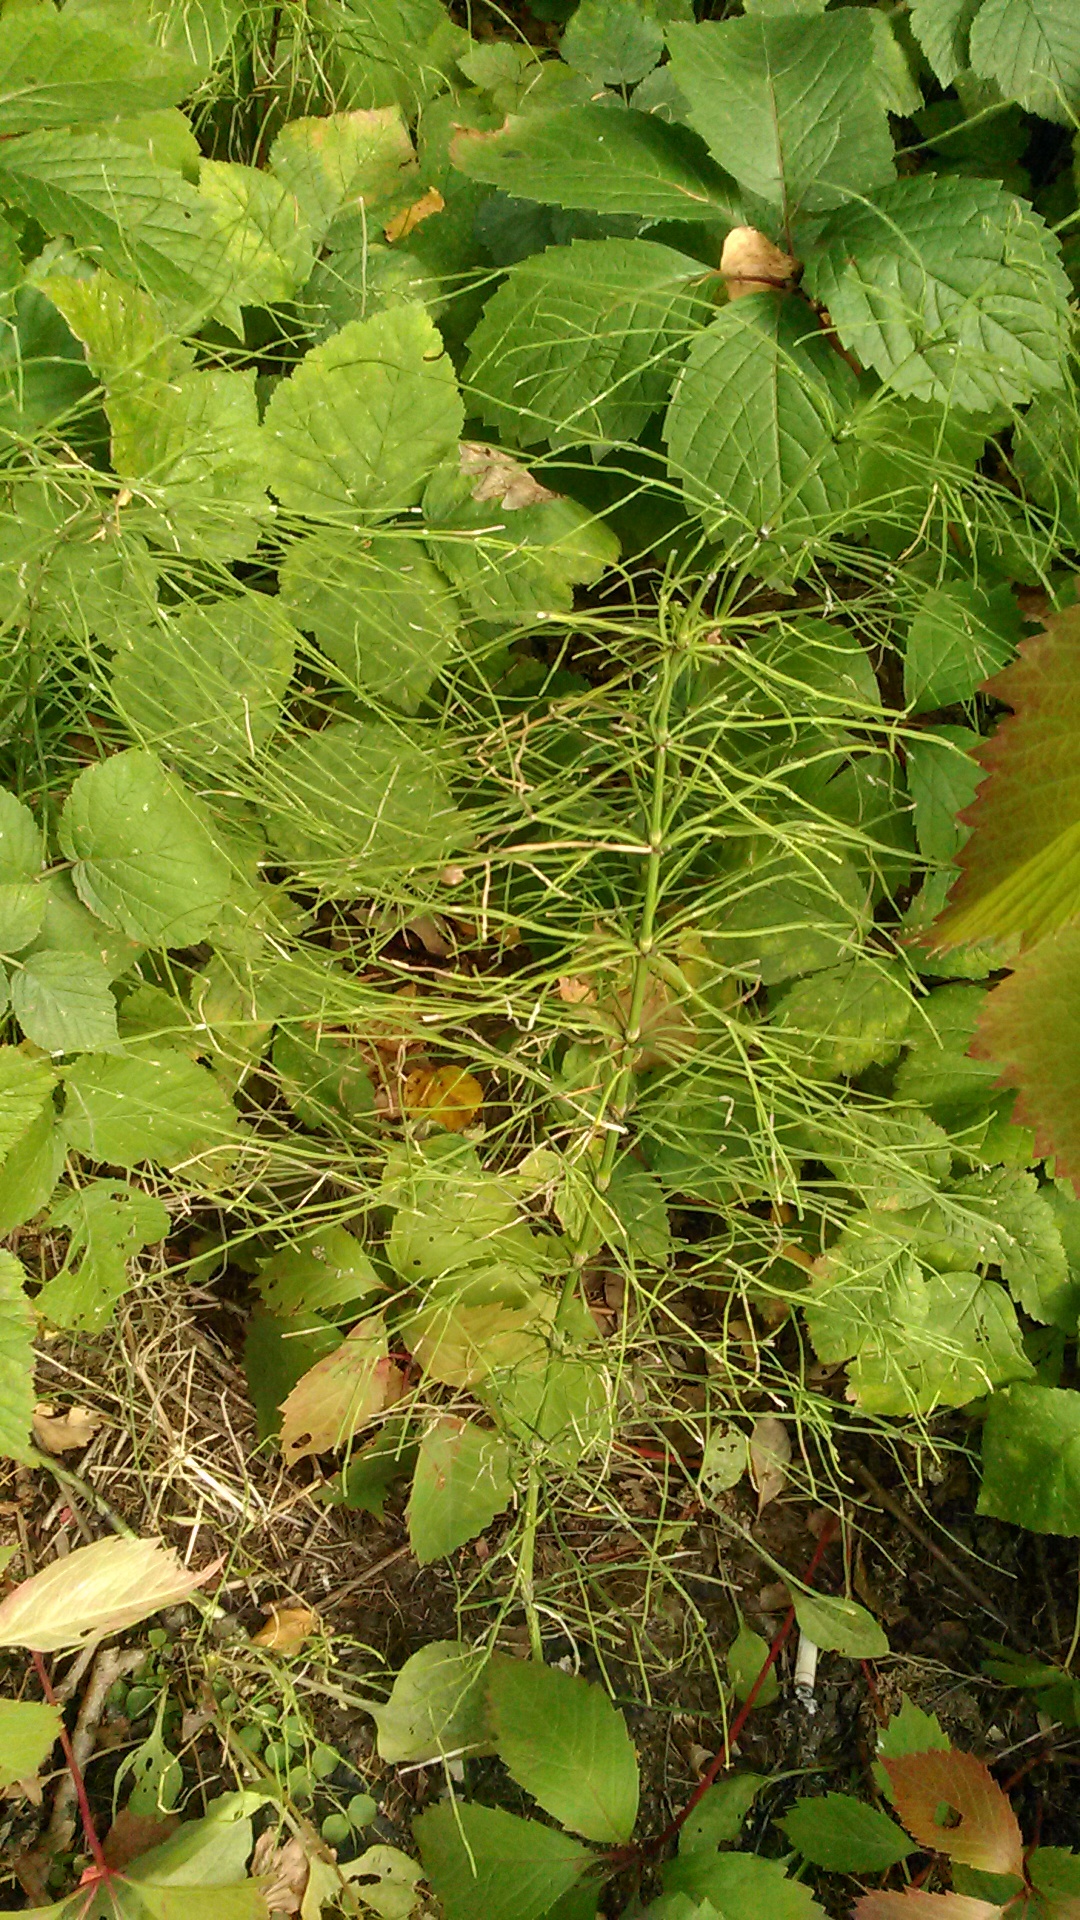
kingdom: Plantae
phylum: Tracheophyta
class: Polypodiopsida
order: Equisetales
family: Equisetaceae
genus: Equisetum
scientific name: Equisetum sylvaticum
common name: Wood horsetail
